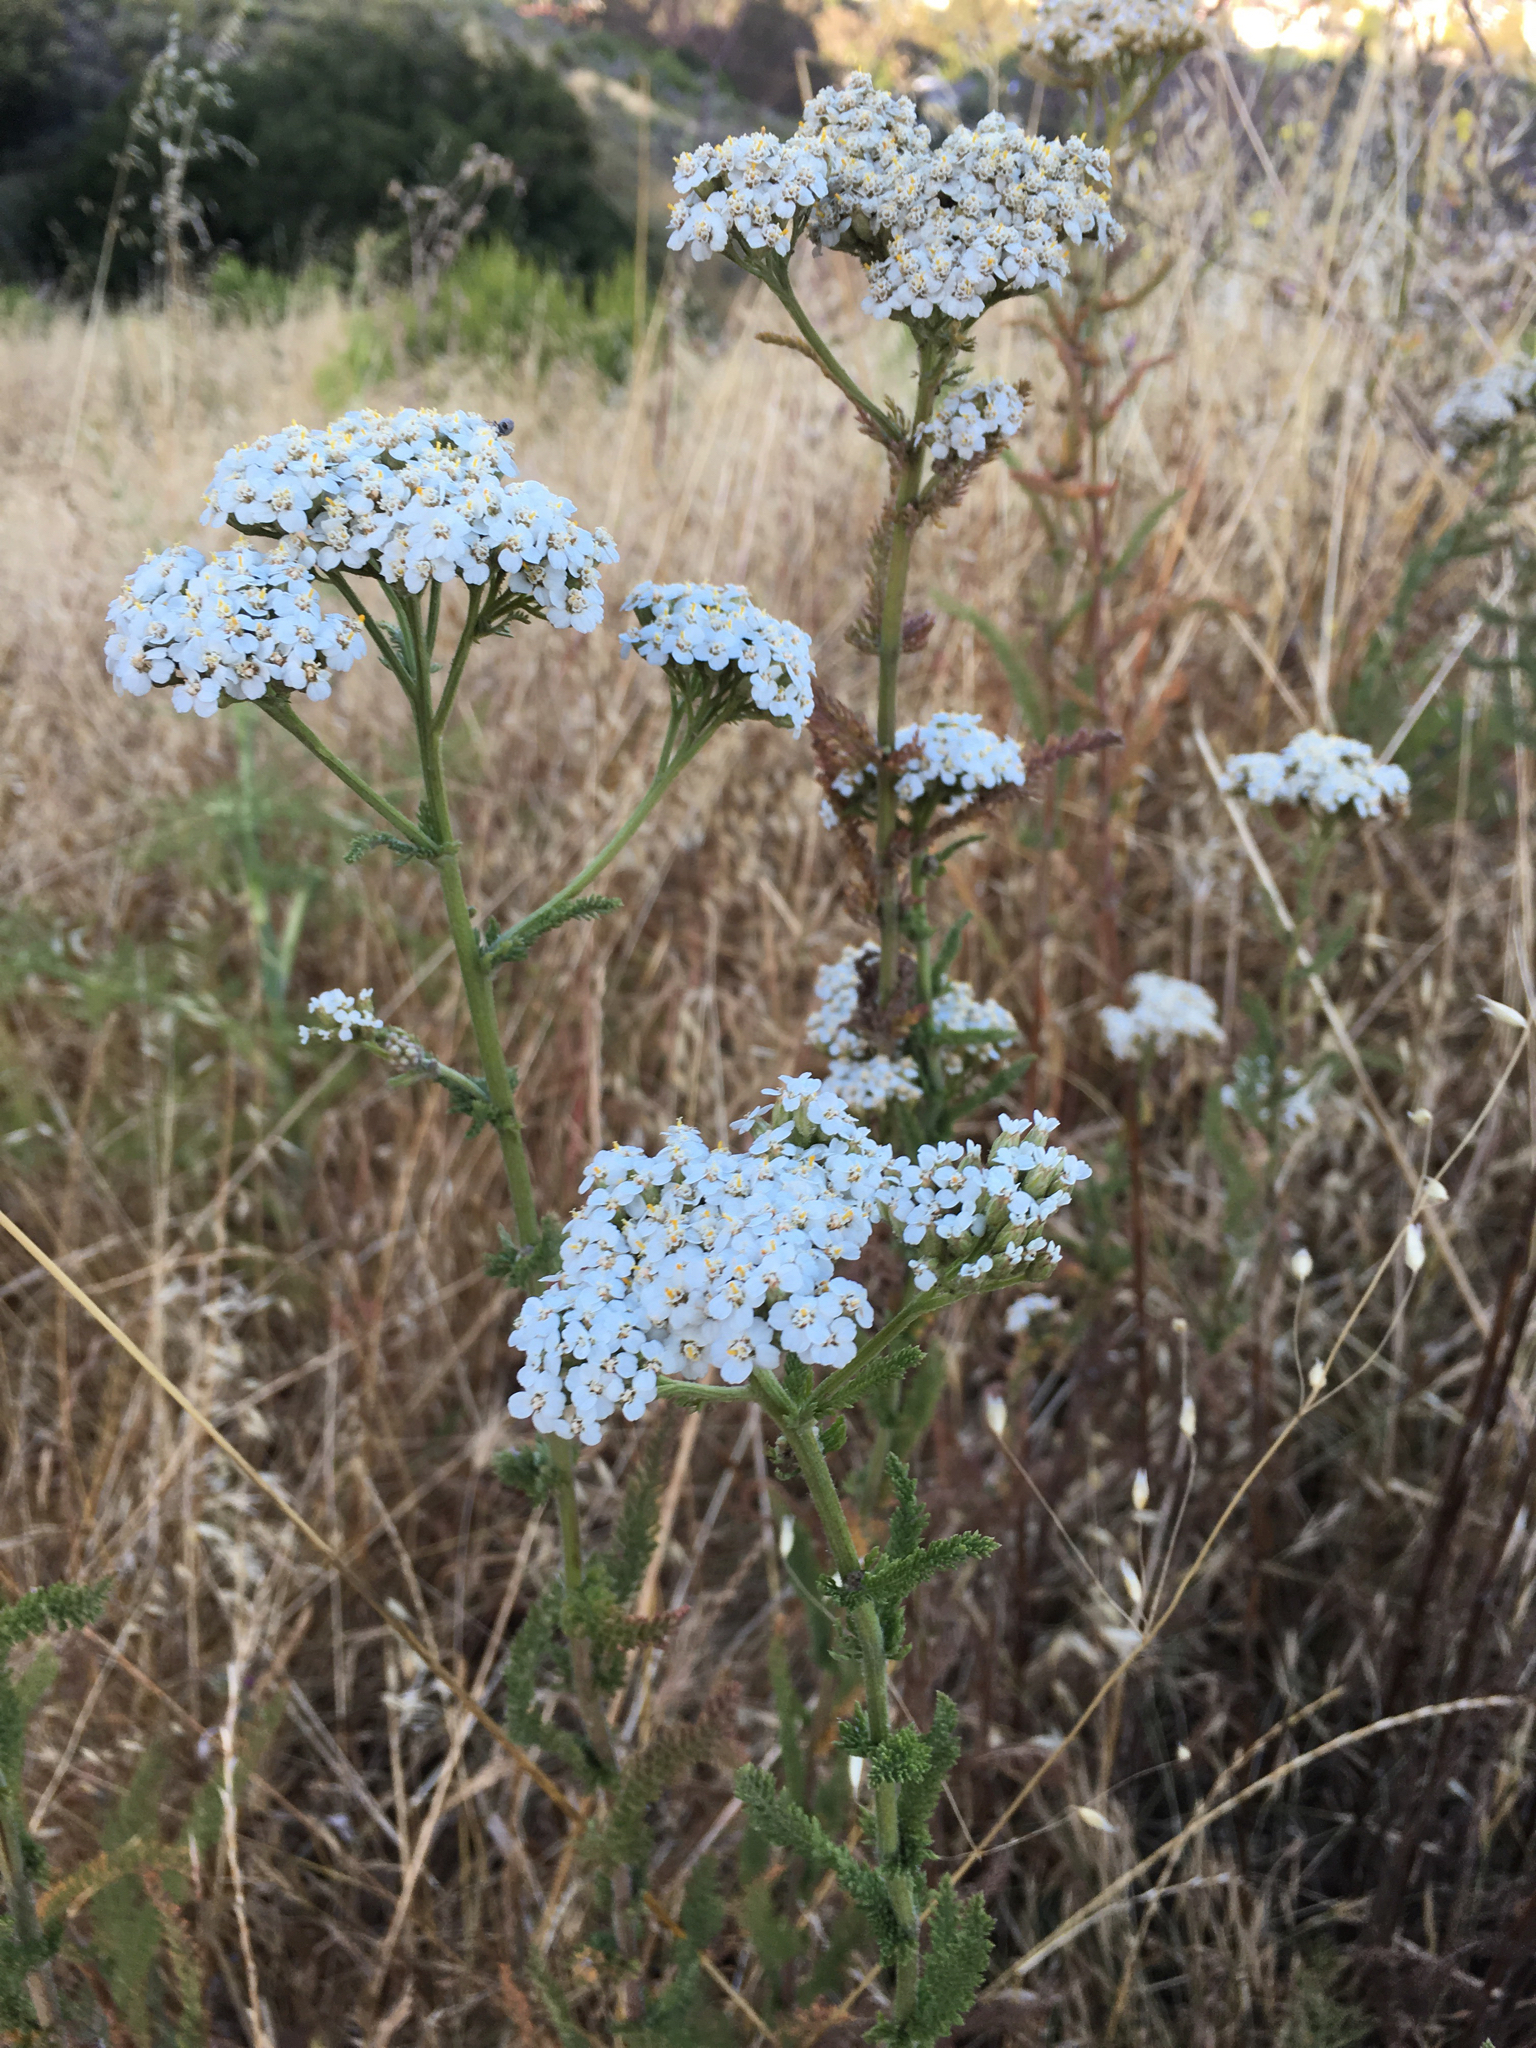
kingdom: Plantae
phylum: Tracheophyta
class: Magnoliopsida
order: Asterales
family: Asteraceae
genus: Achillea
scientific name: Achillea millefolium
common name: Yarrow
